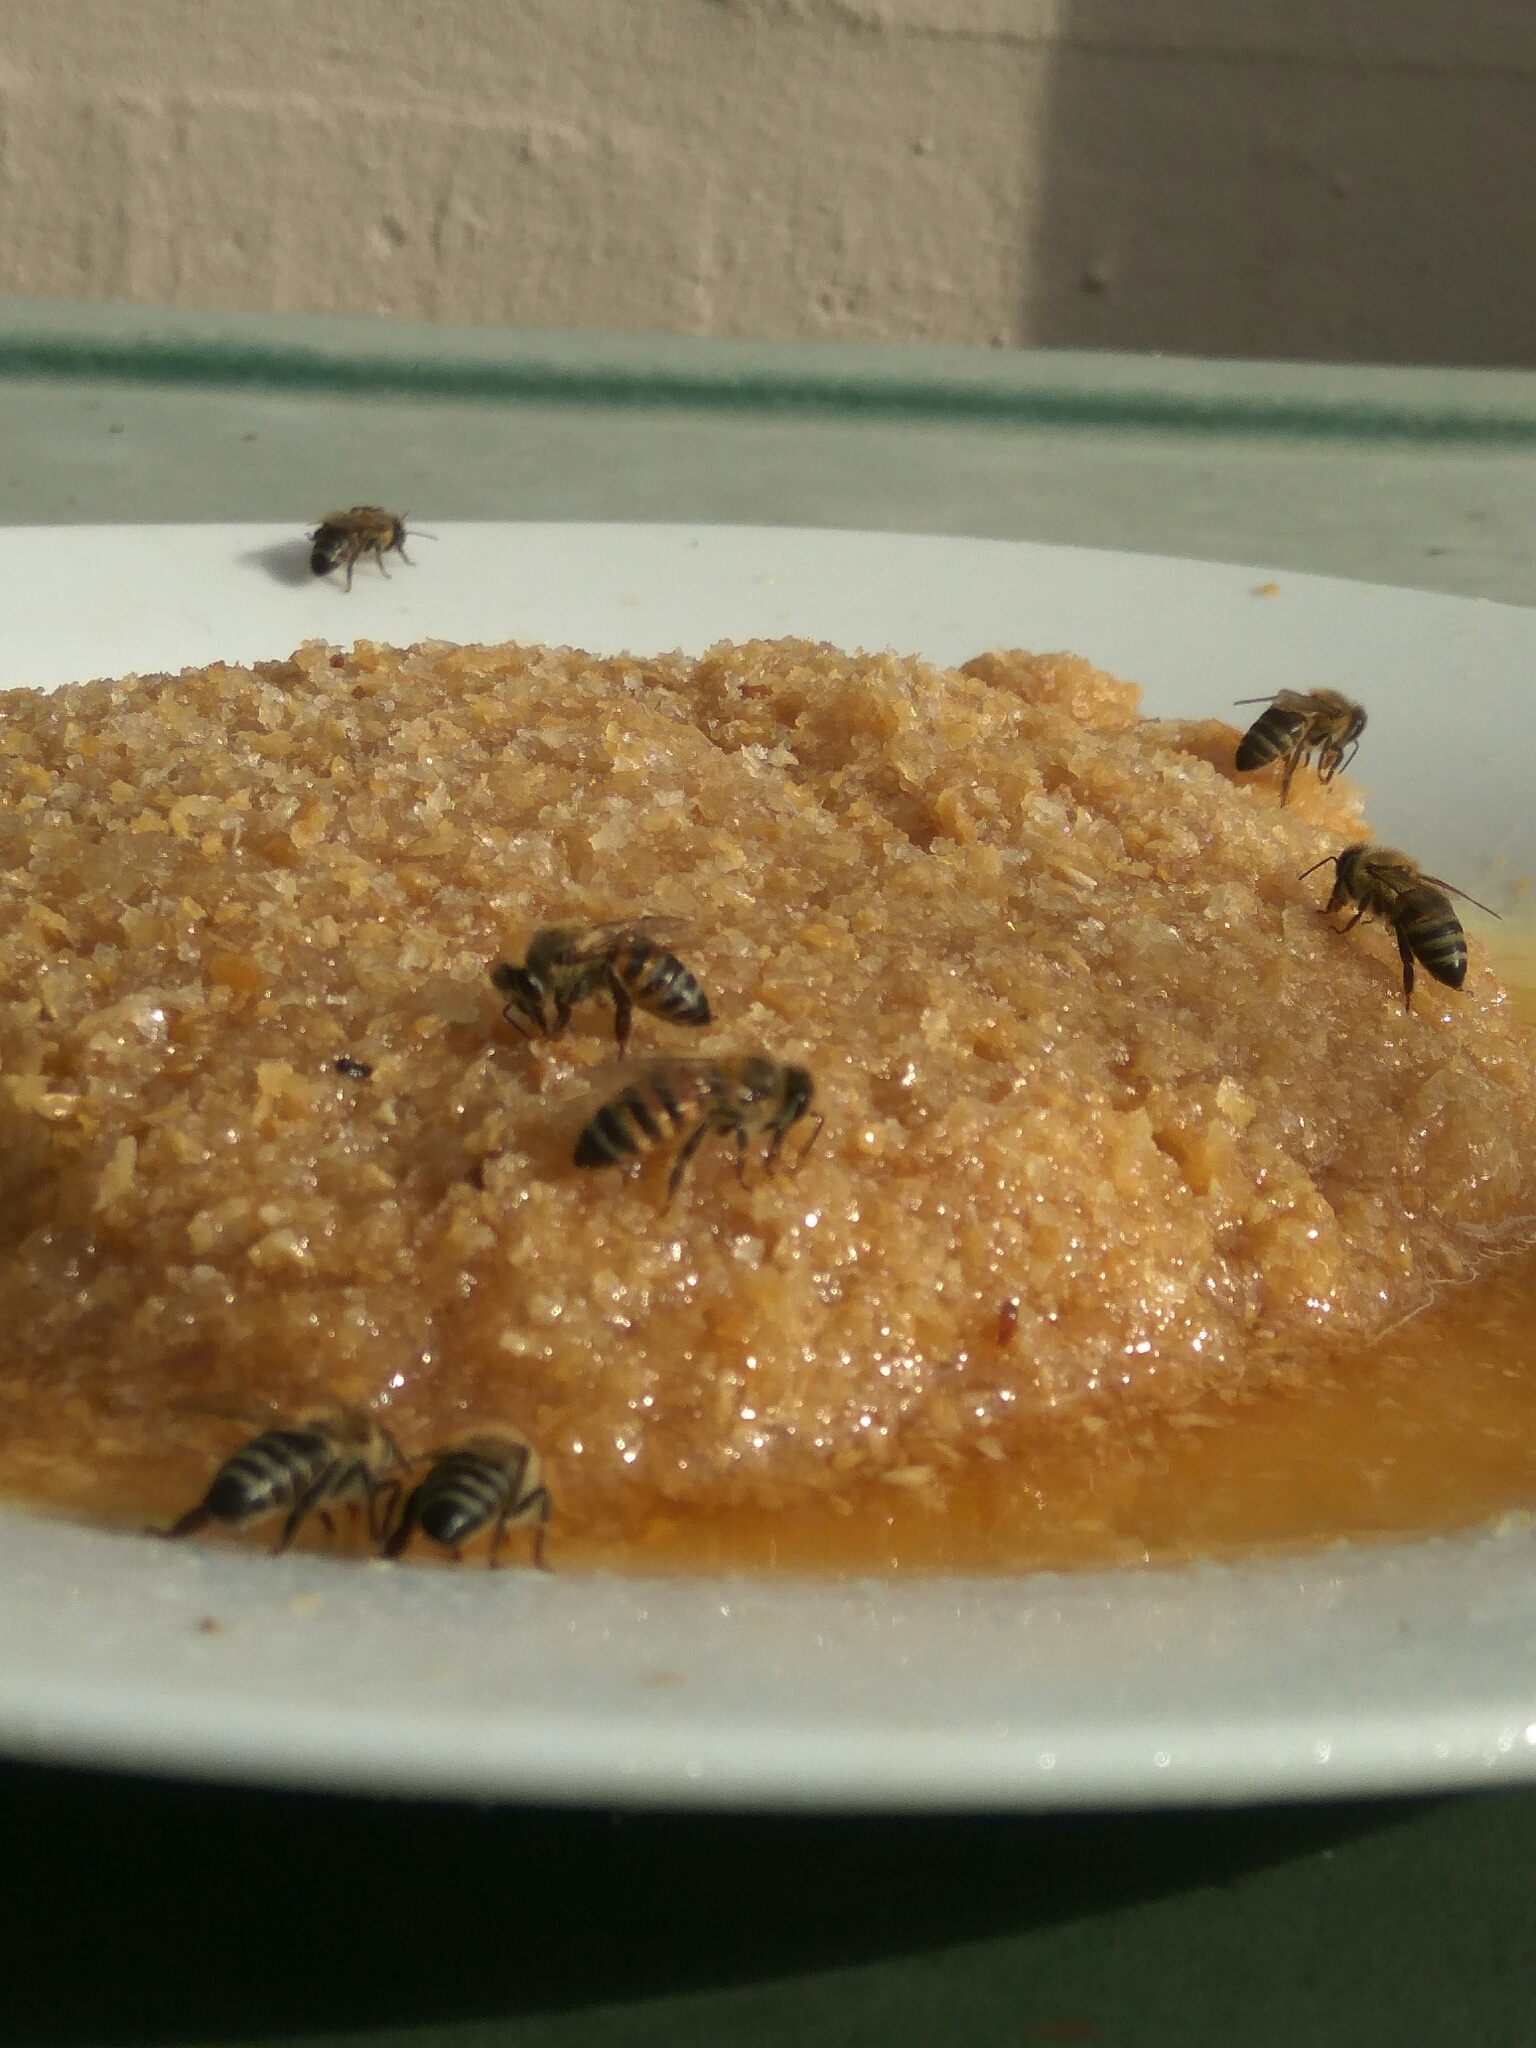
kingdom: Animalia
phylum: Arthropoda
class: Insecta
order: Hymenoptera
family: Apidae
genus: Apis
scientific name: Apis mellifera
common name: Honey bee
